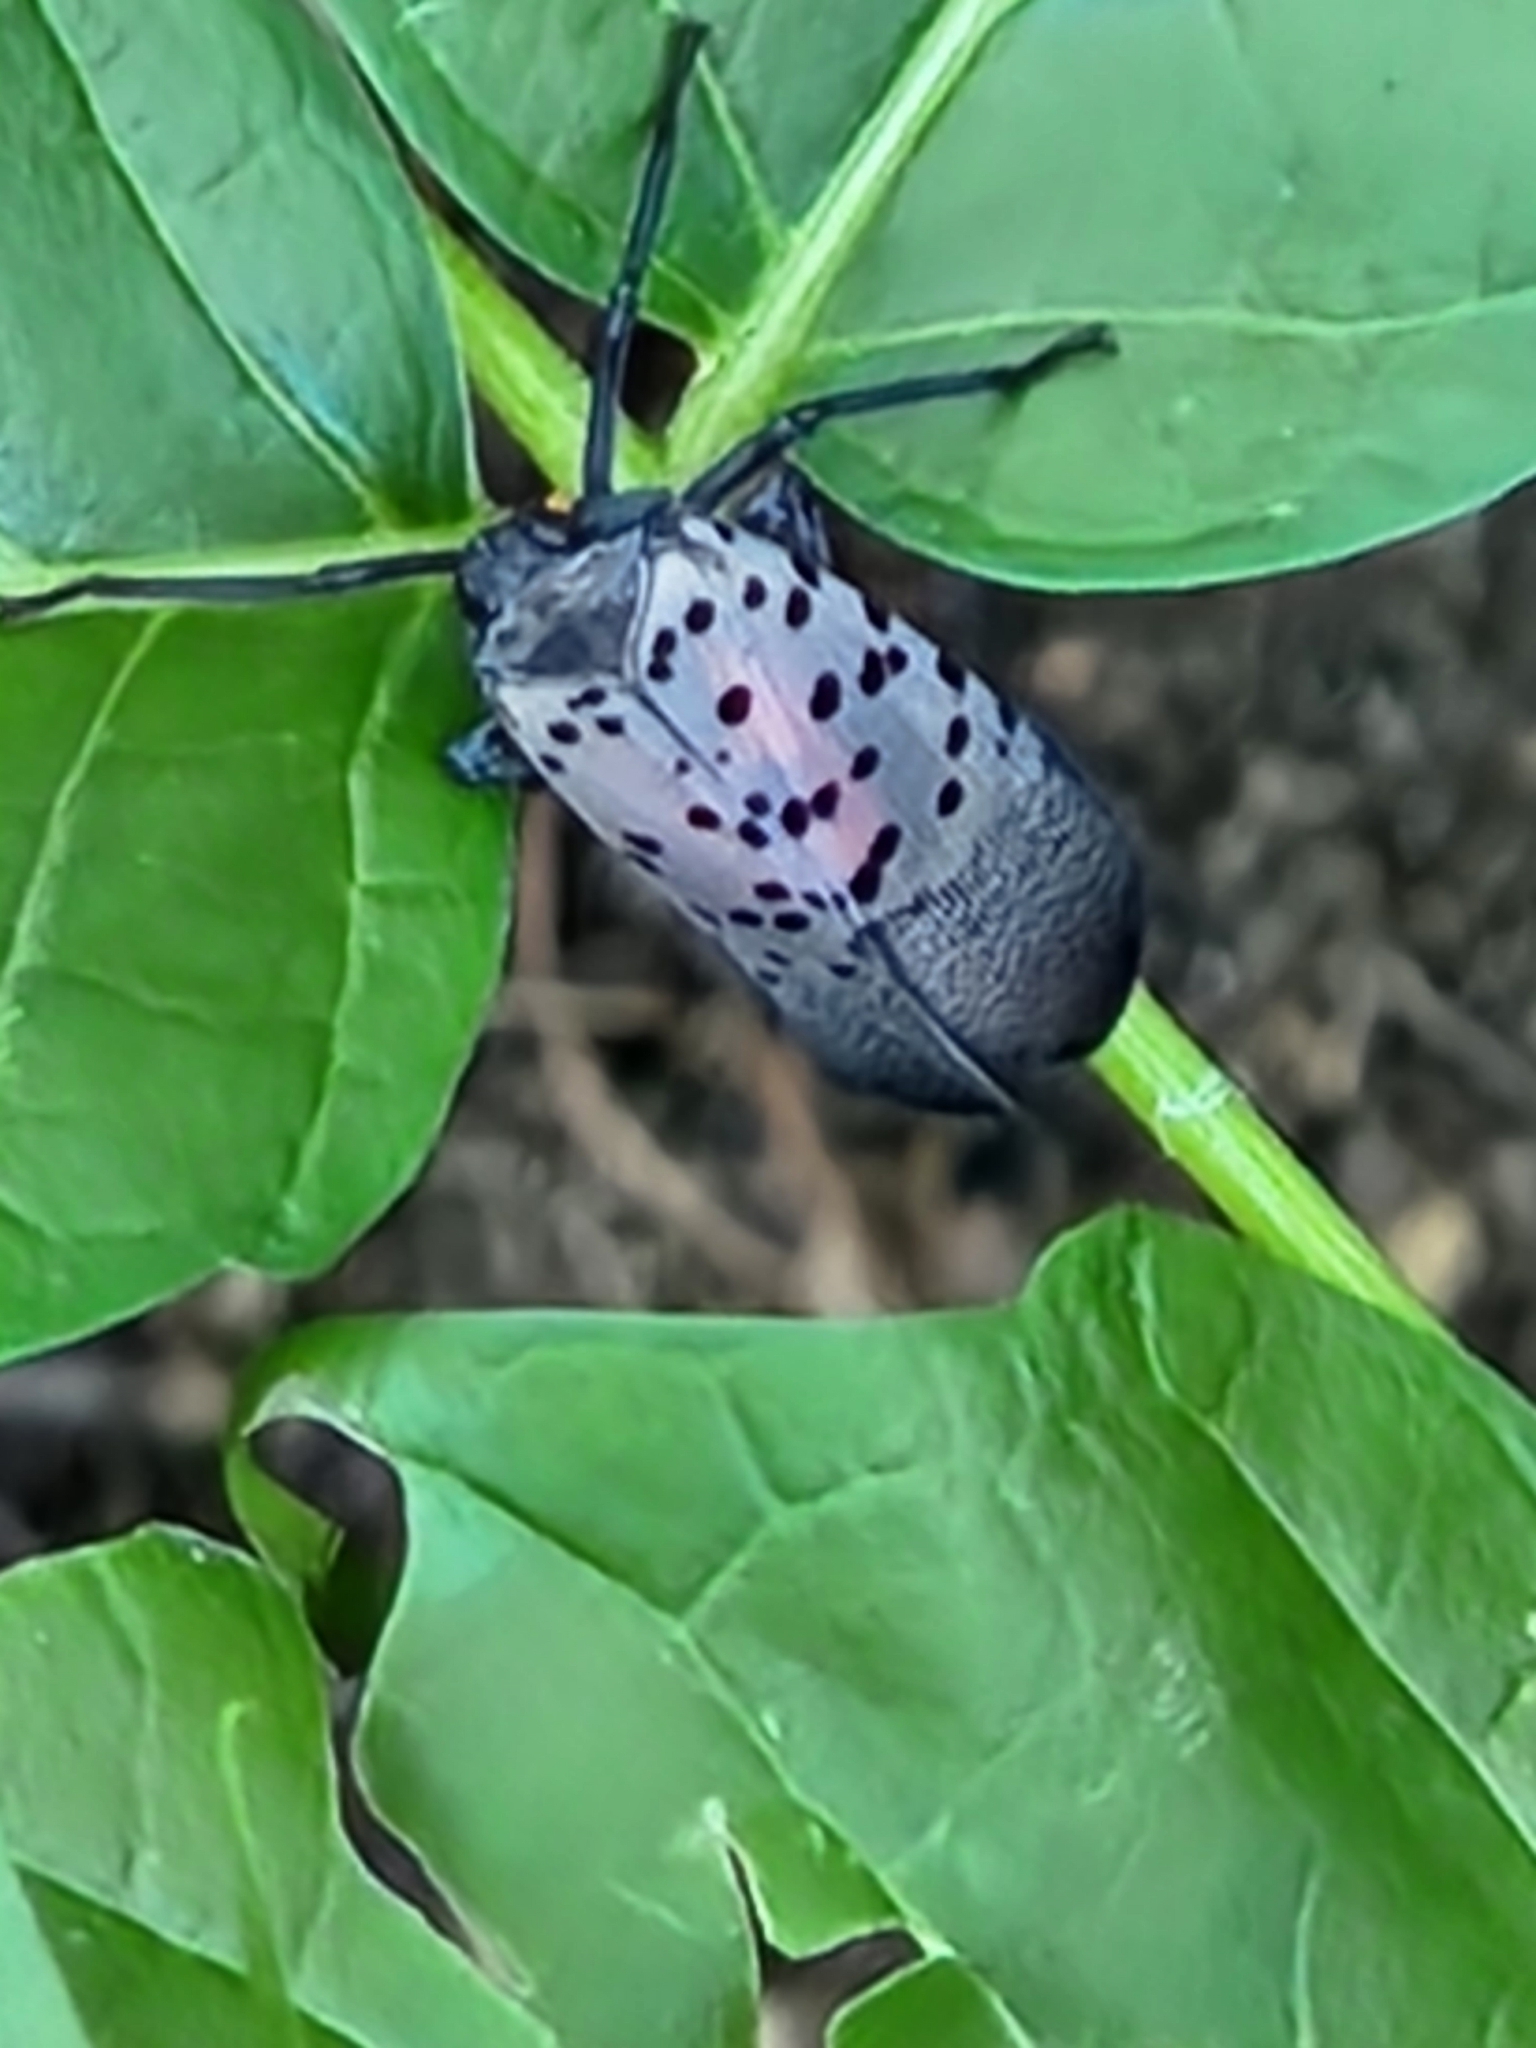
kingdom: Animalia
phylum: Arthropoda
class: Insecta
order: Hemiptera
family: Fulgoridae
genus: Lycorma
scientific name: Lycorma delicatula
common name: Spotted lanternfly
